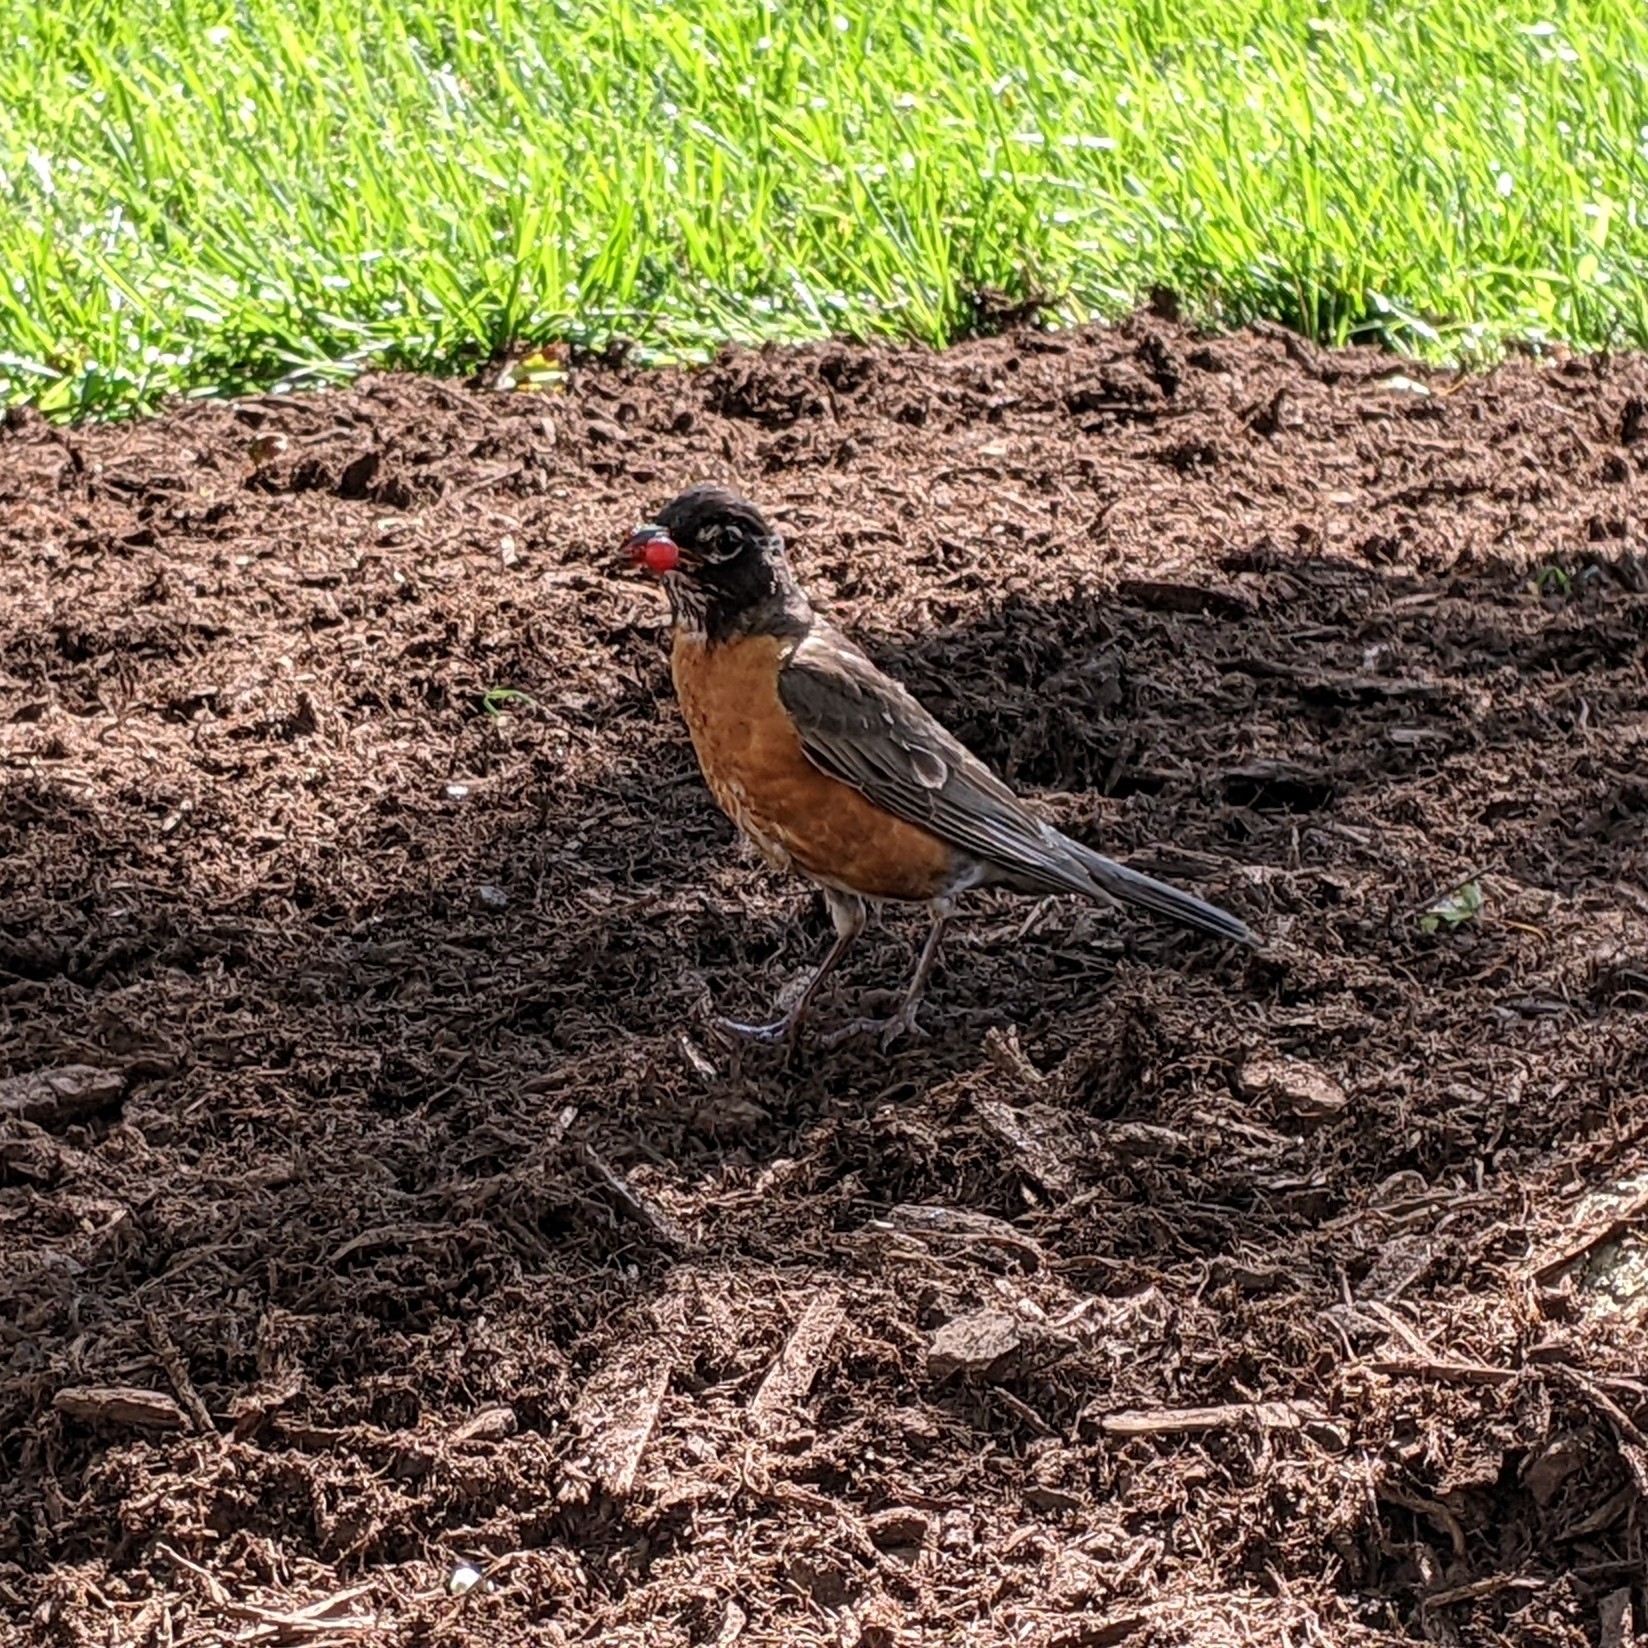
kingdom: Animalia
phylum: Chordata
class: Aves
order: Passeriformes
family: Turdidae
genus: Turdus
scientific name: Turdus migratorius
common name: American robin
